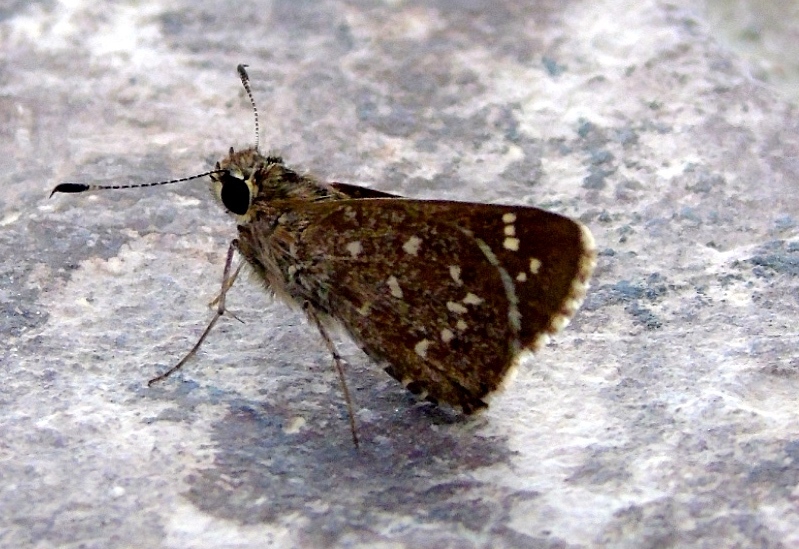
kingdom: Animalia
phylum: Arthropoda
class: Insecta
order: Lepidoptera
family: Hesperiidae
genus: Mastor
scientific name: Mastor tolteca
